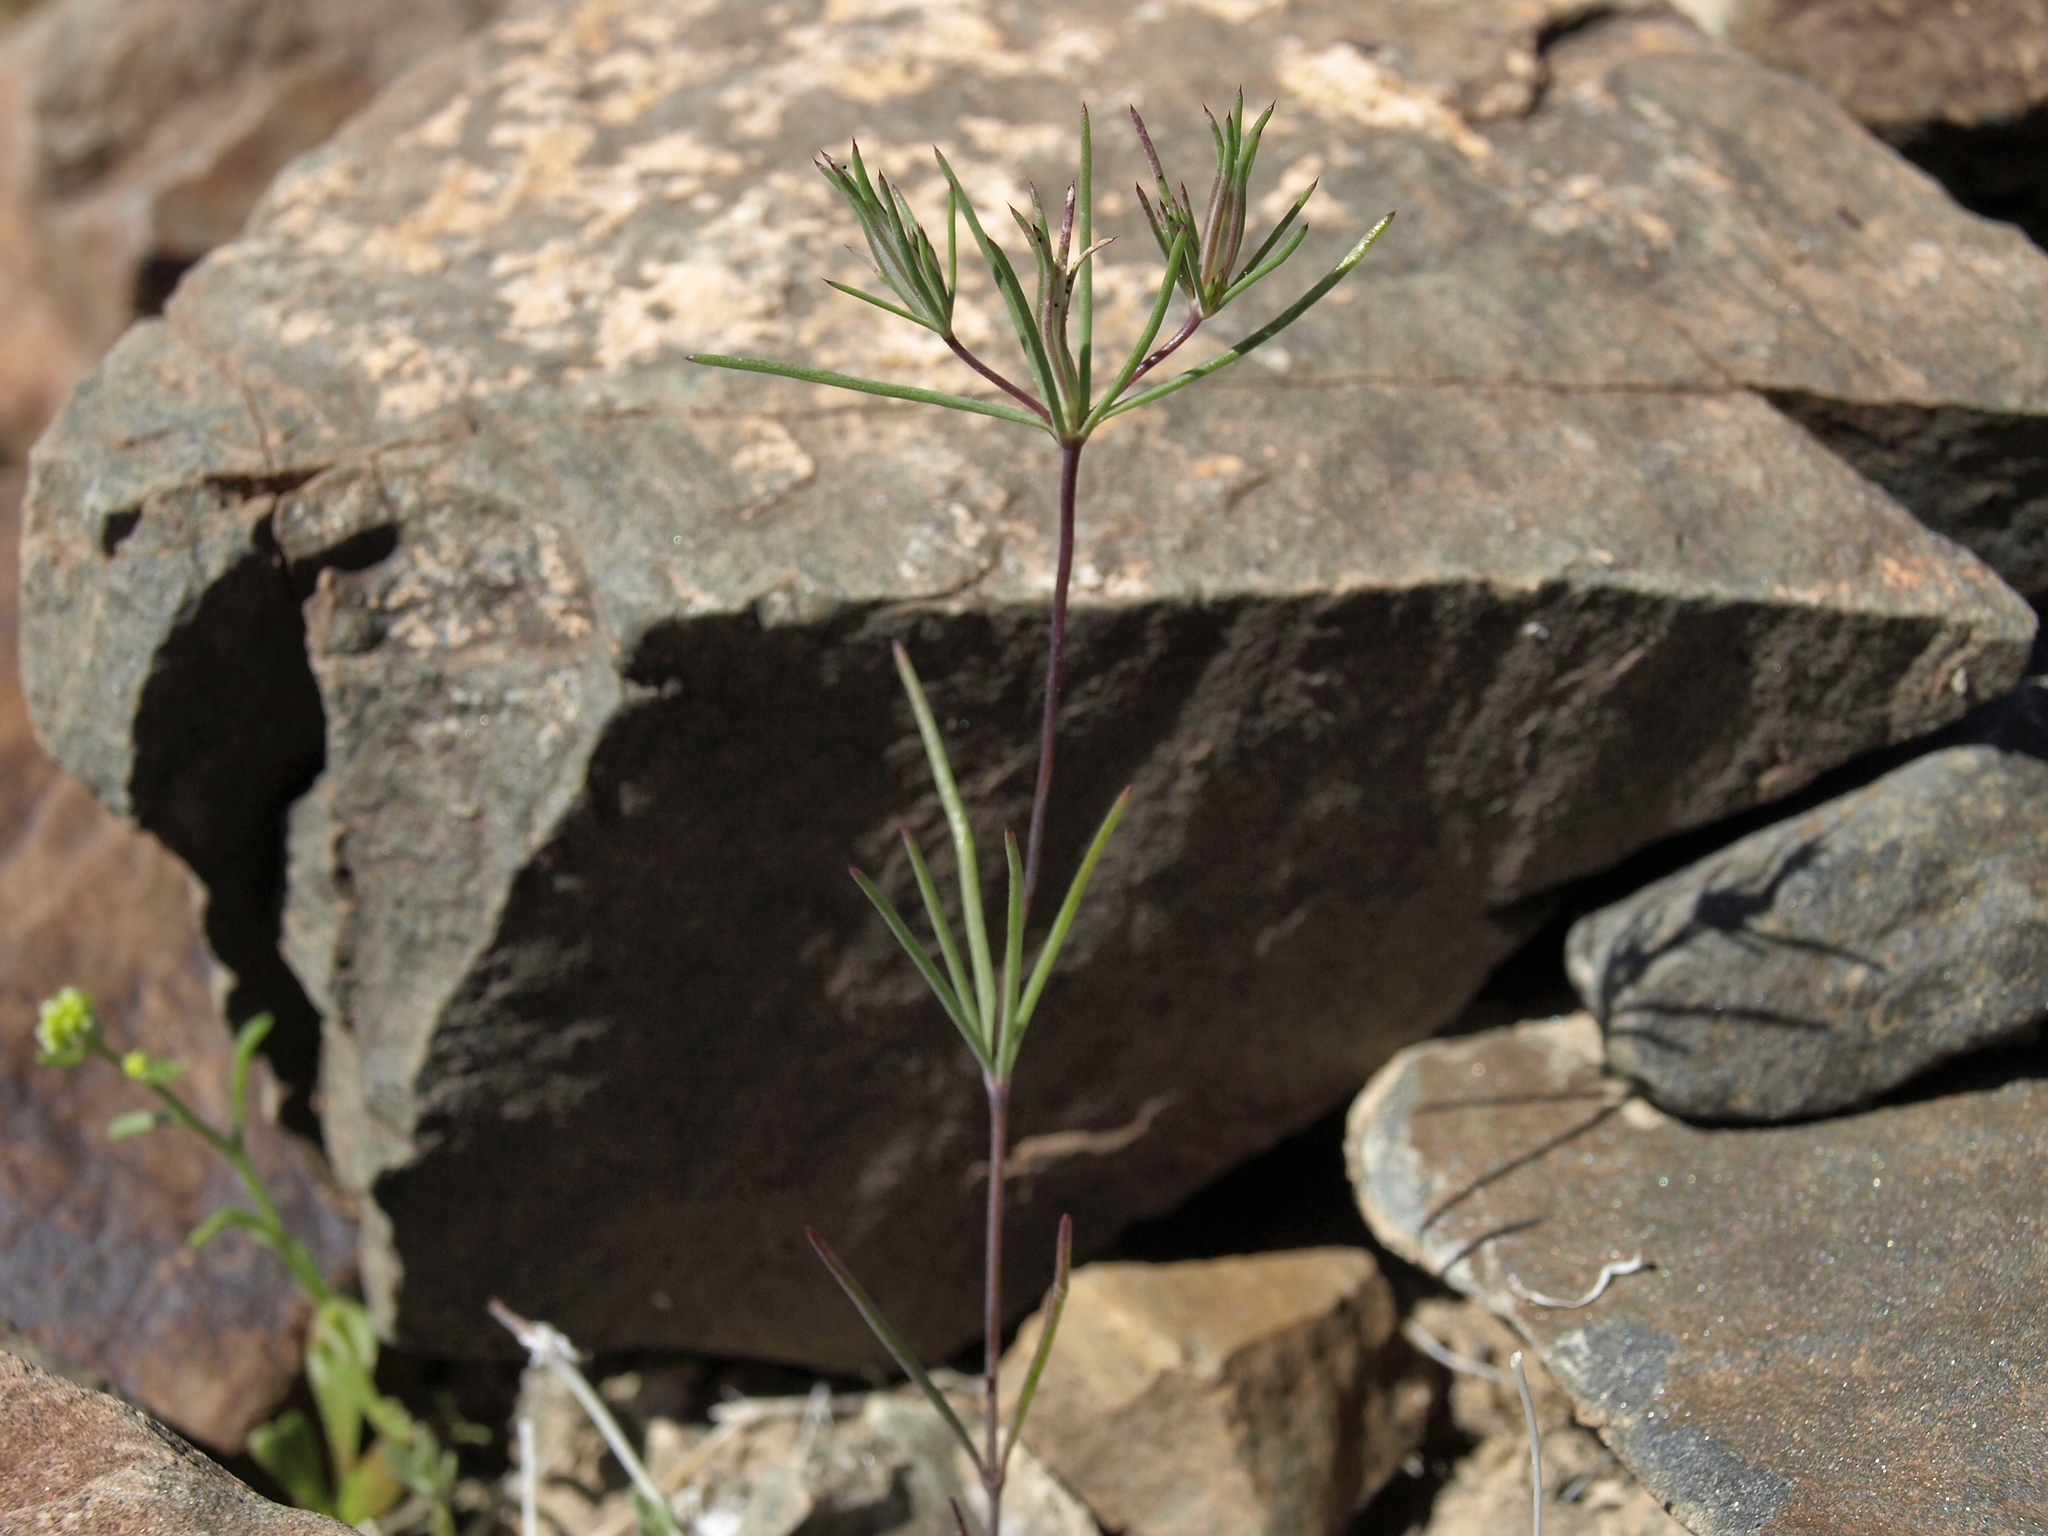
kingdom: Plantae
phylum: Tracheophyta
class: Magnoliopsida
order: Ericales
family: Polemoniaceae
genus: Linanthus
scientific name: Linanthus bigelovii
